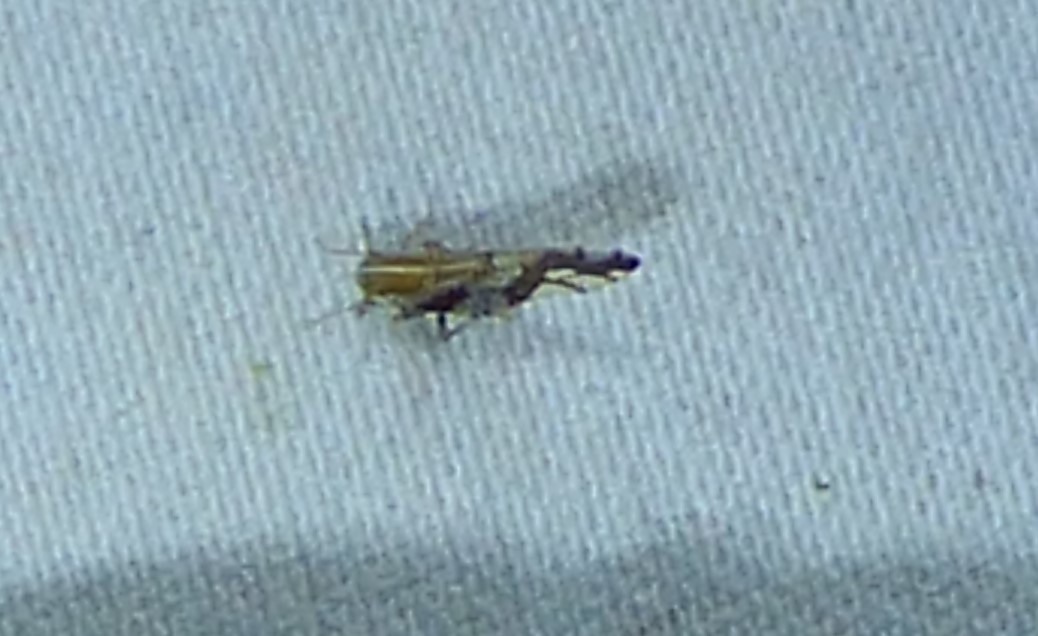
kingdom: Animalia
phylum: Arthropoda
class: Insecta
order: Hemiptera
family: Delphacidae
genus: Liburniella
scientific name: Liburniella ornata
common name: Ornate planthopper
